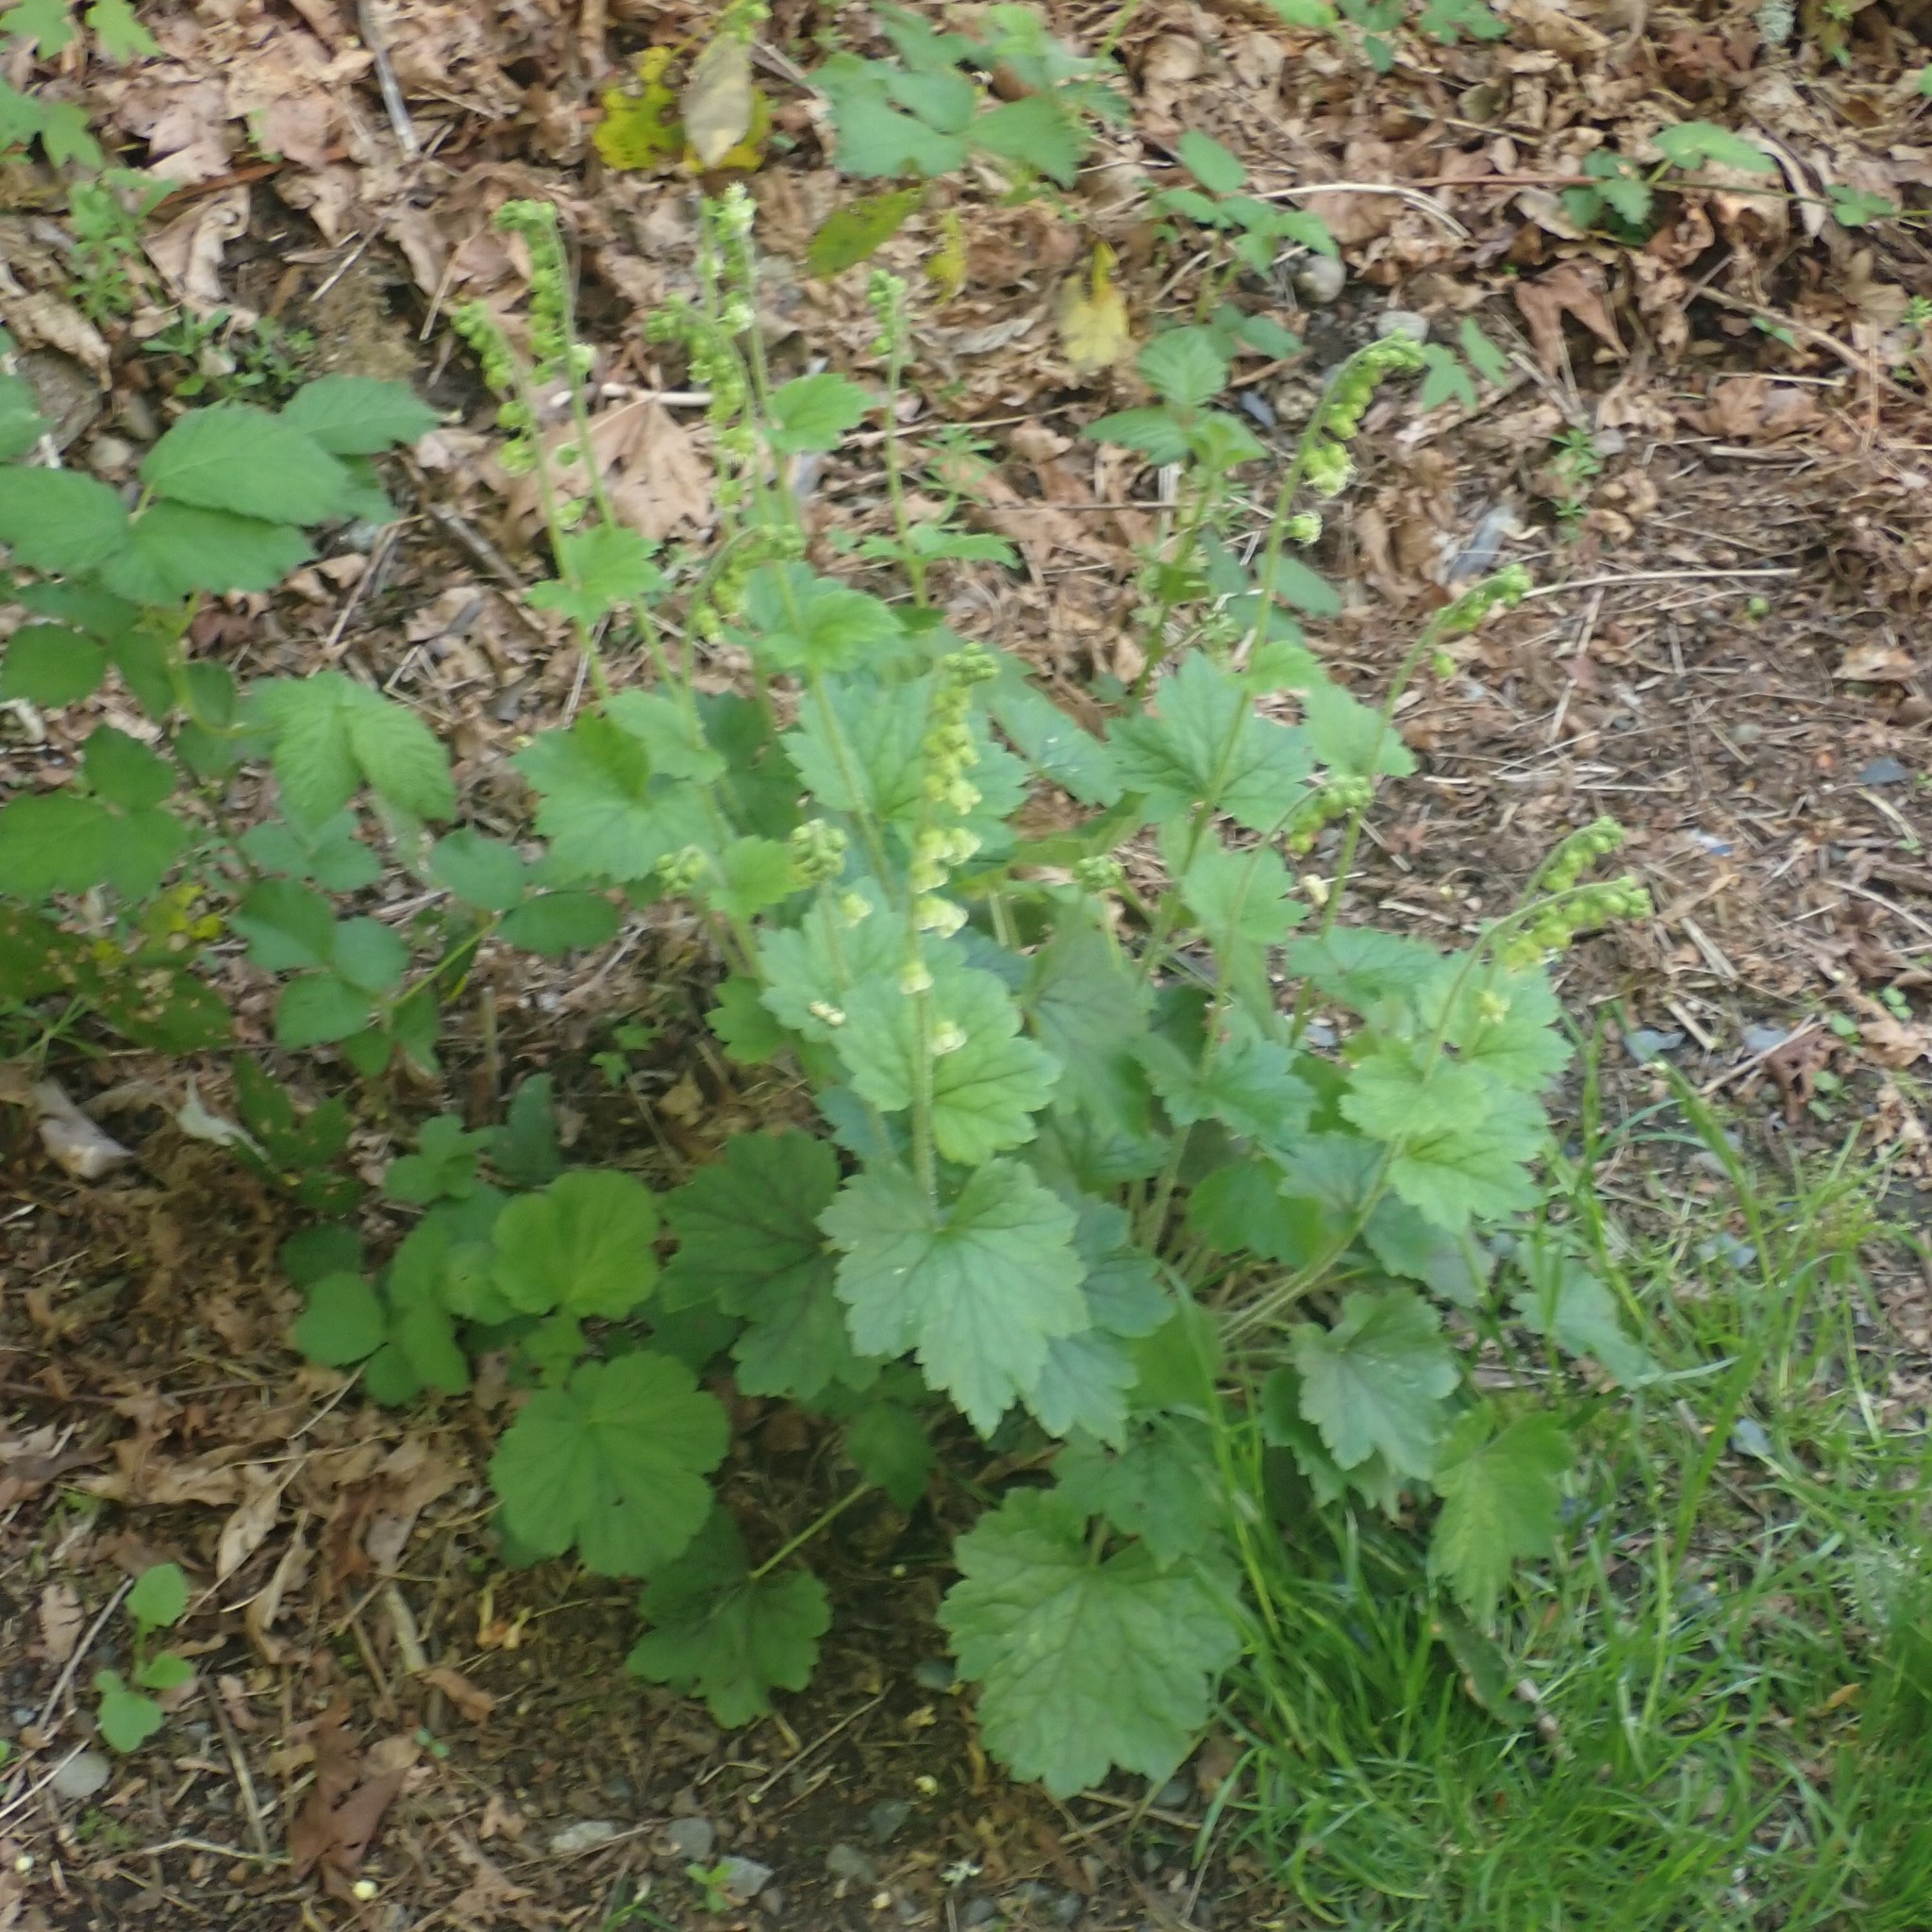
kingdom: Plantae
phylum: Tracheophyta
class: Magnoliopsida
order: Saxifragales
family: Saxifragaceae
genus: Tellima
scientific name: Tellima grandiflora
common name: Fringecups
